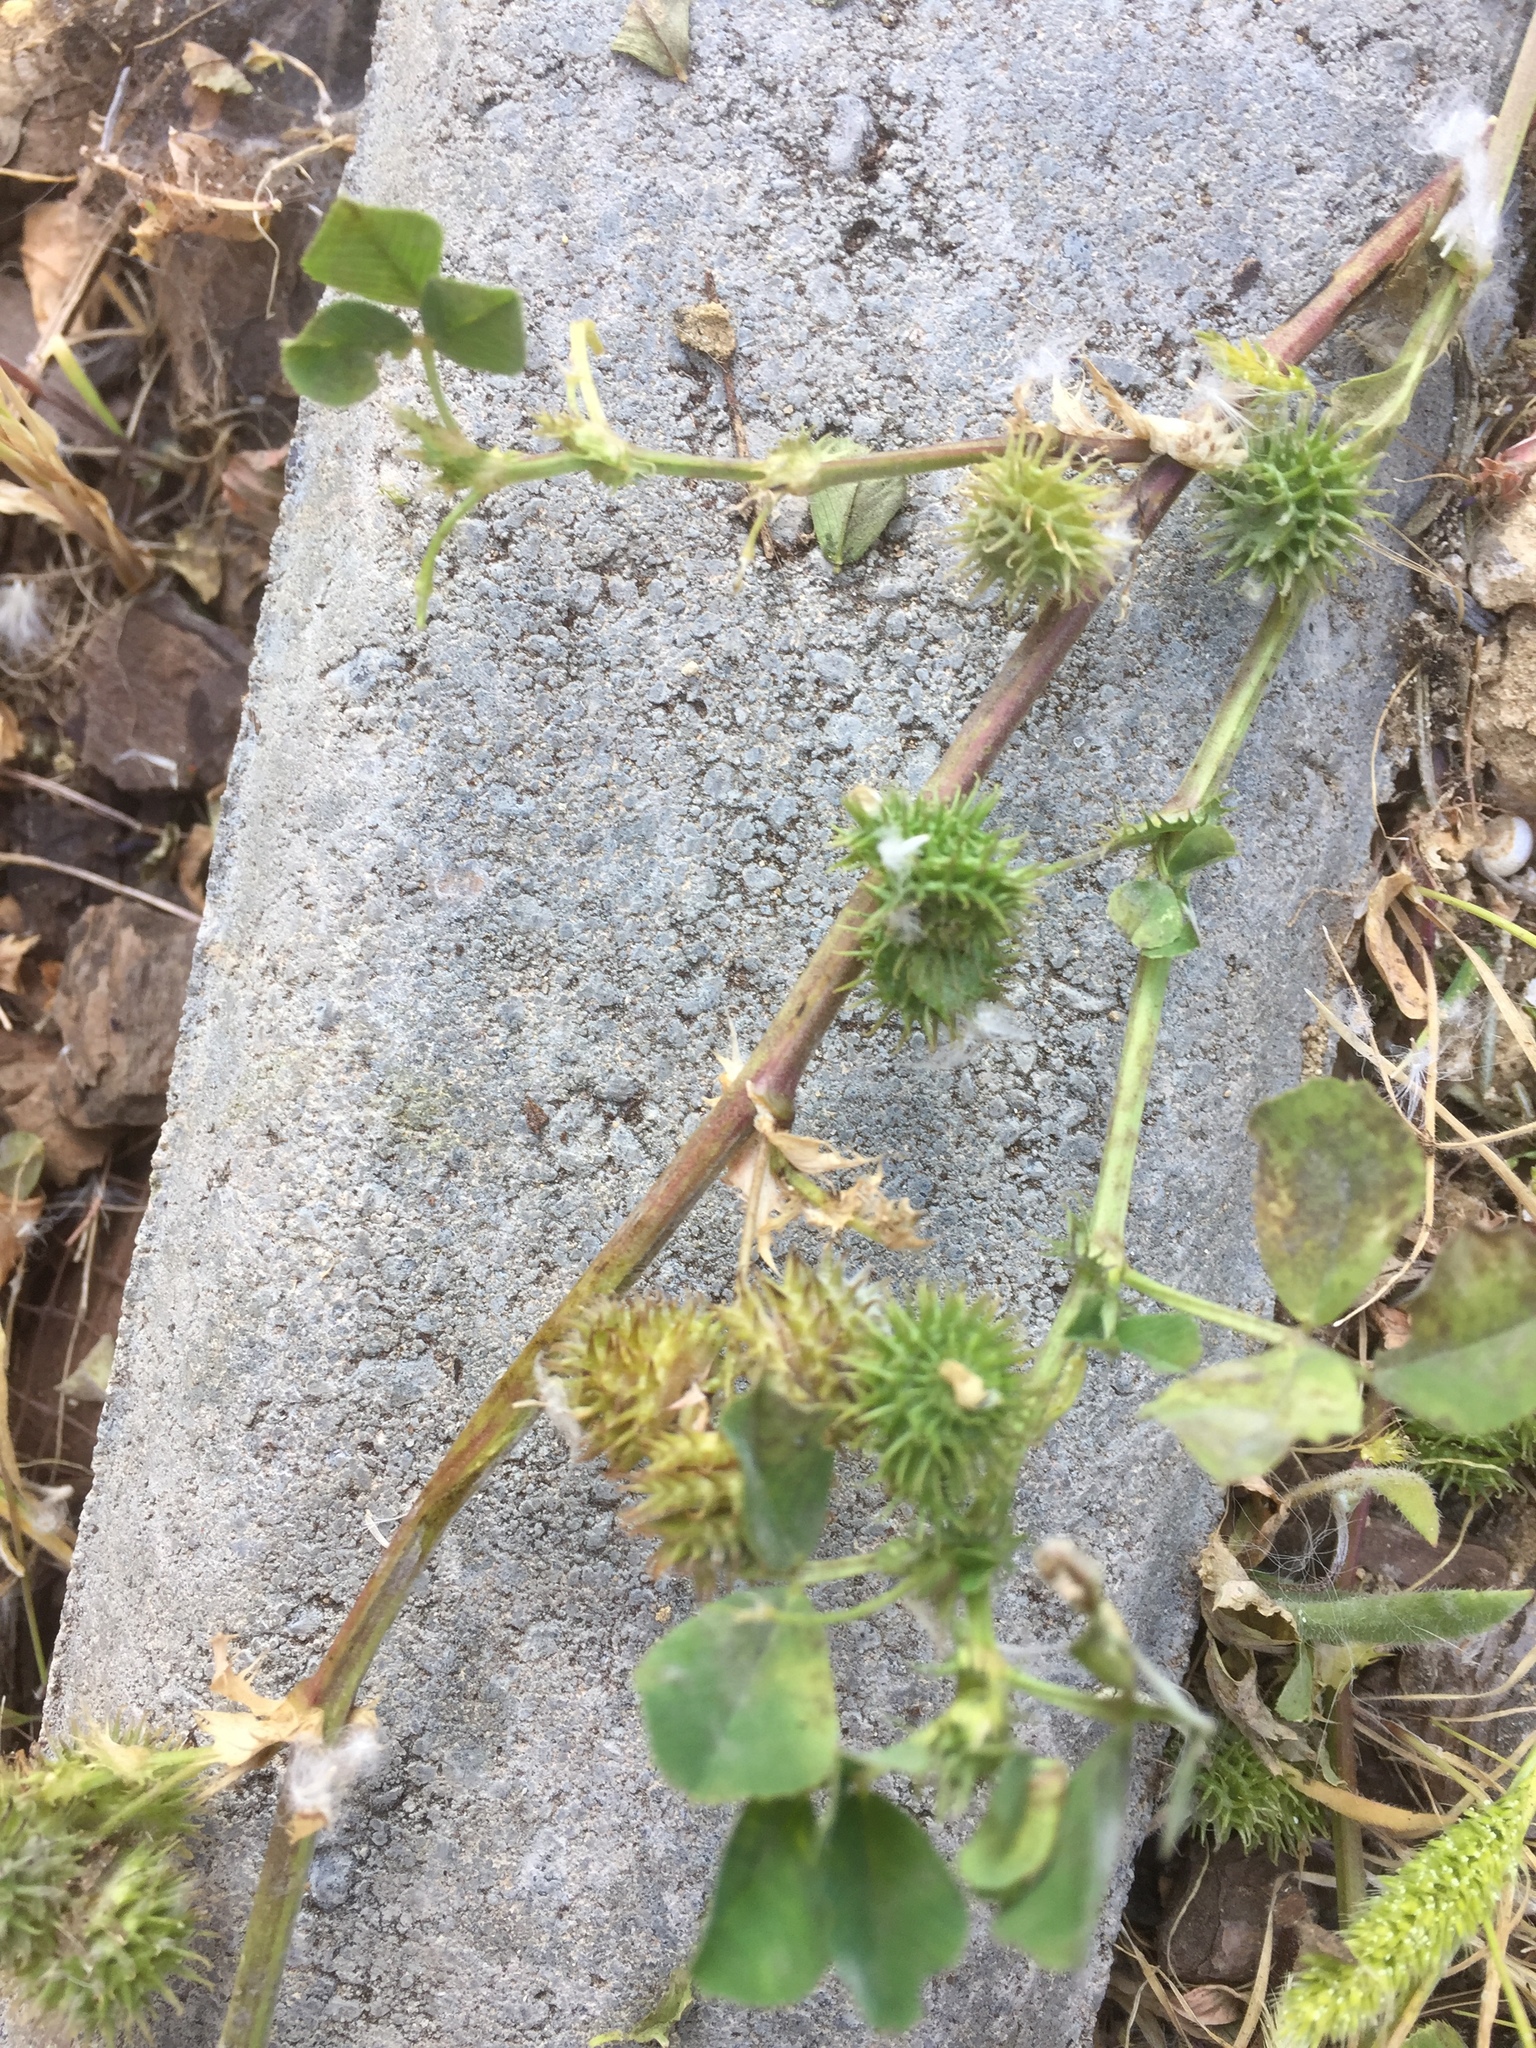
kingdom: Plantae
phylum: Tracheophyta
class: Magnoliopsida
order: Fabales
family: Fabaceae
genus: Medicago
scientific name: Medicago polymorpha
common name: Burclover
